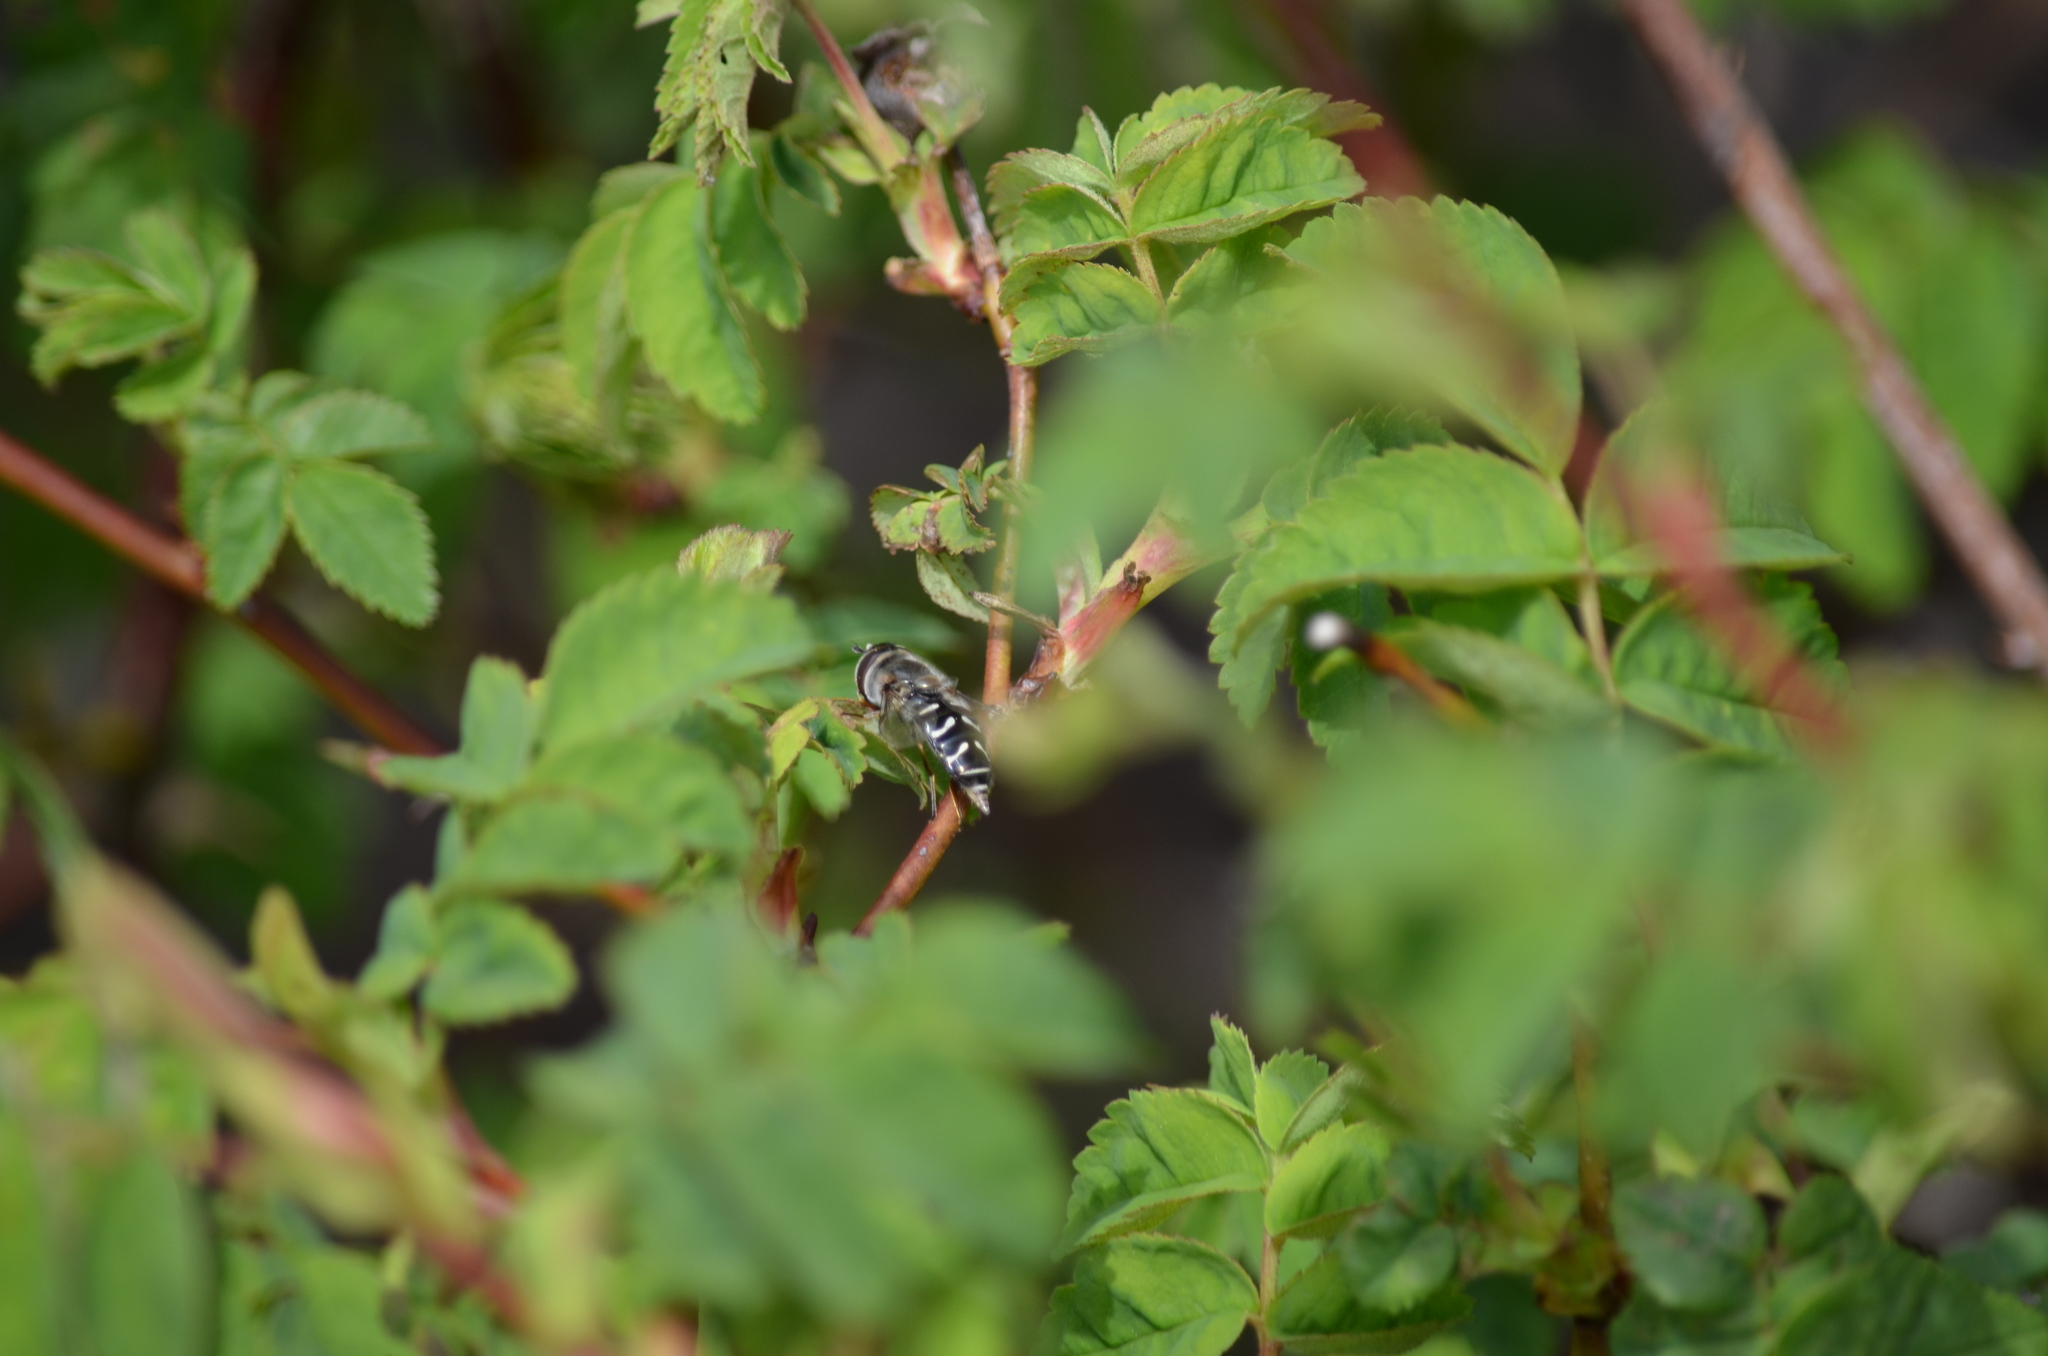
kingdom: Animalia
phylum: Arthropoda
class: Insecta
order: Diptera
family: Syrphidae
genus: Scaeva
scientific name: Scaeva affinis
